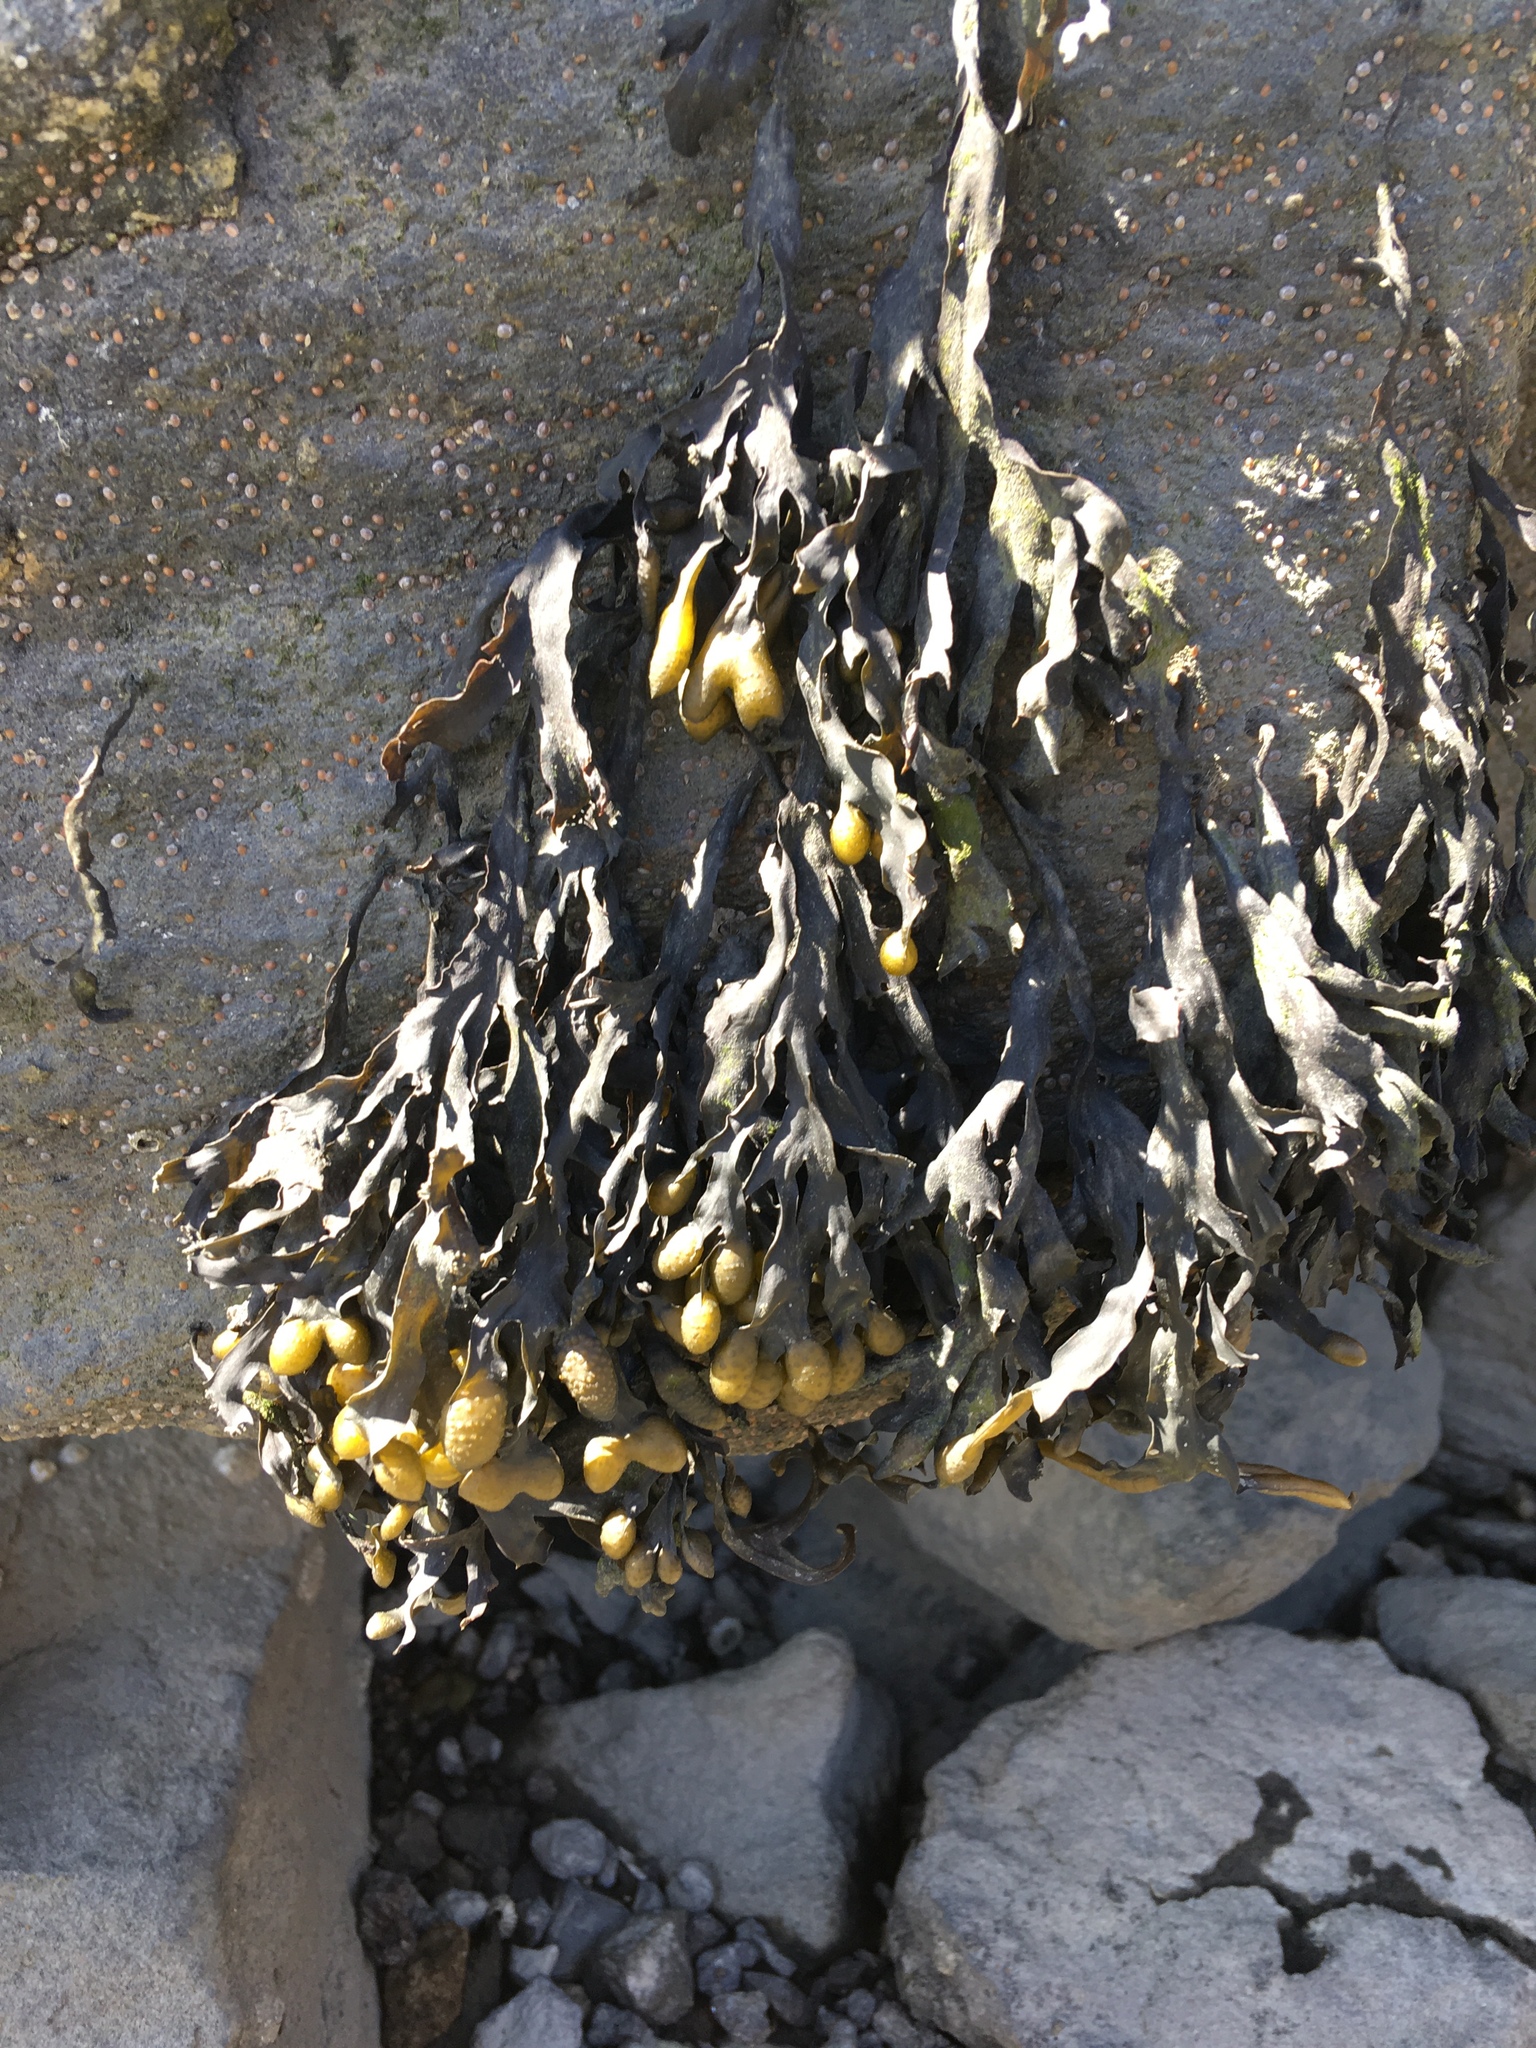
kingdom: Chromista
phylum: Ochrophyta
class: Phaeophyceae
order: Fucales
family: Fucaceae
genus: Fucus
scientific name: Fucus distichus
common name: Rockweed
